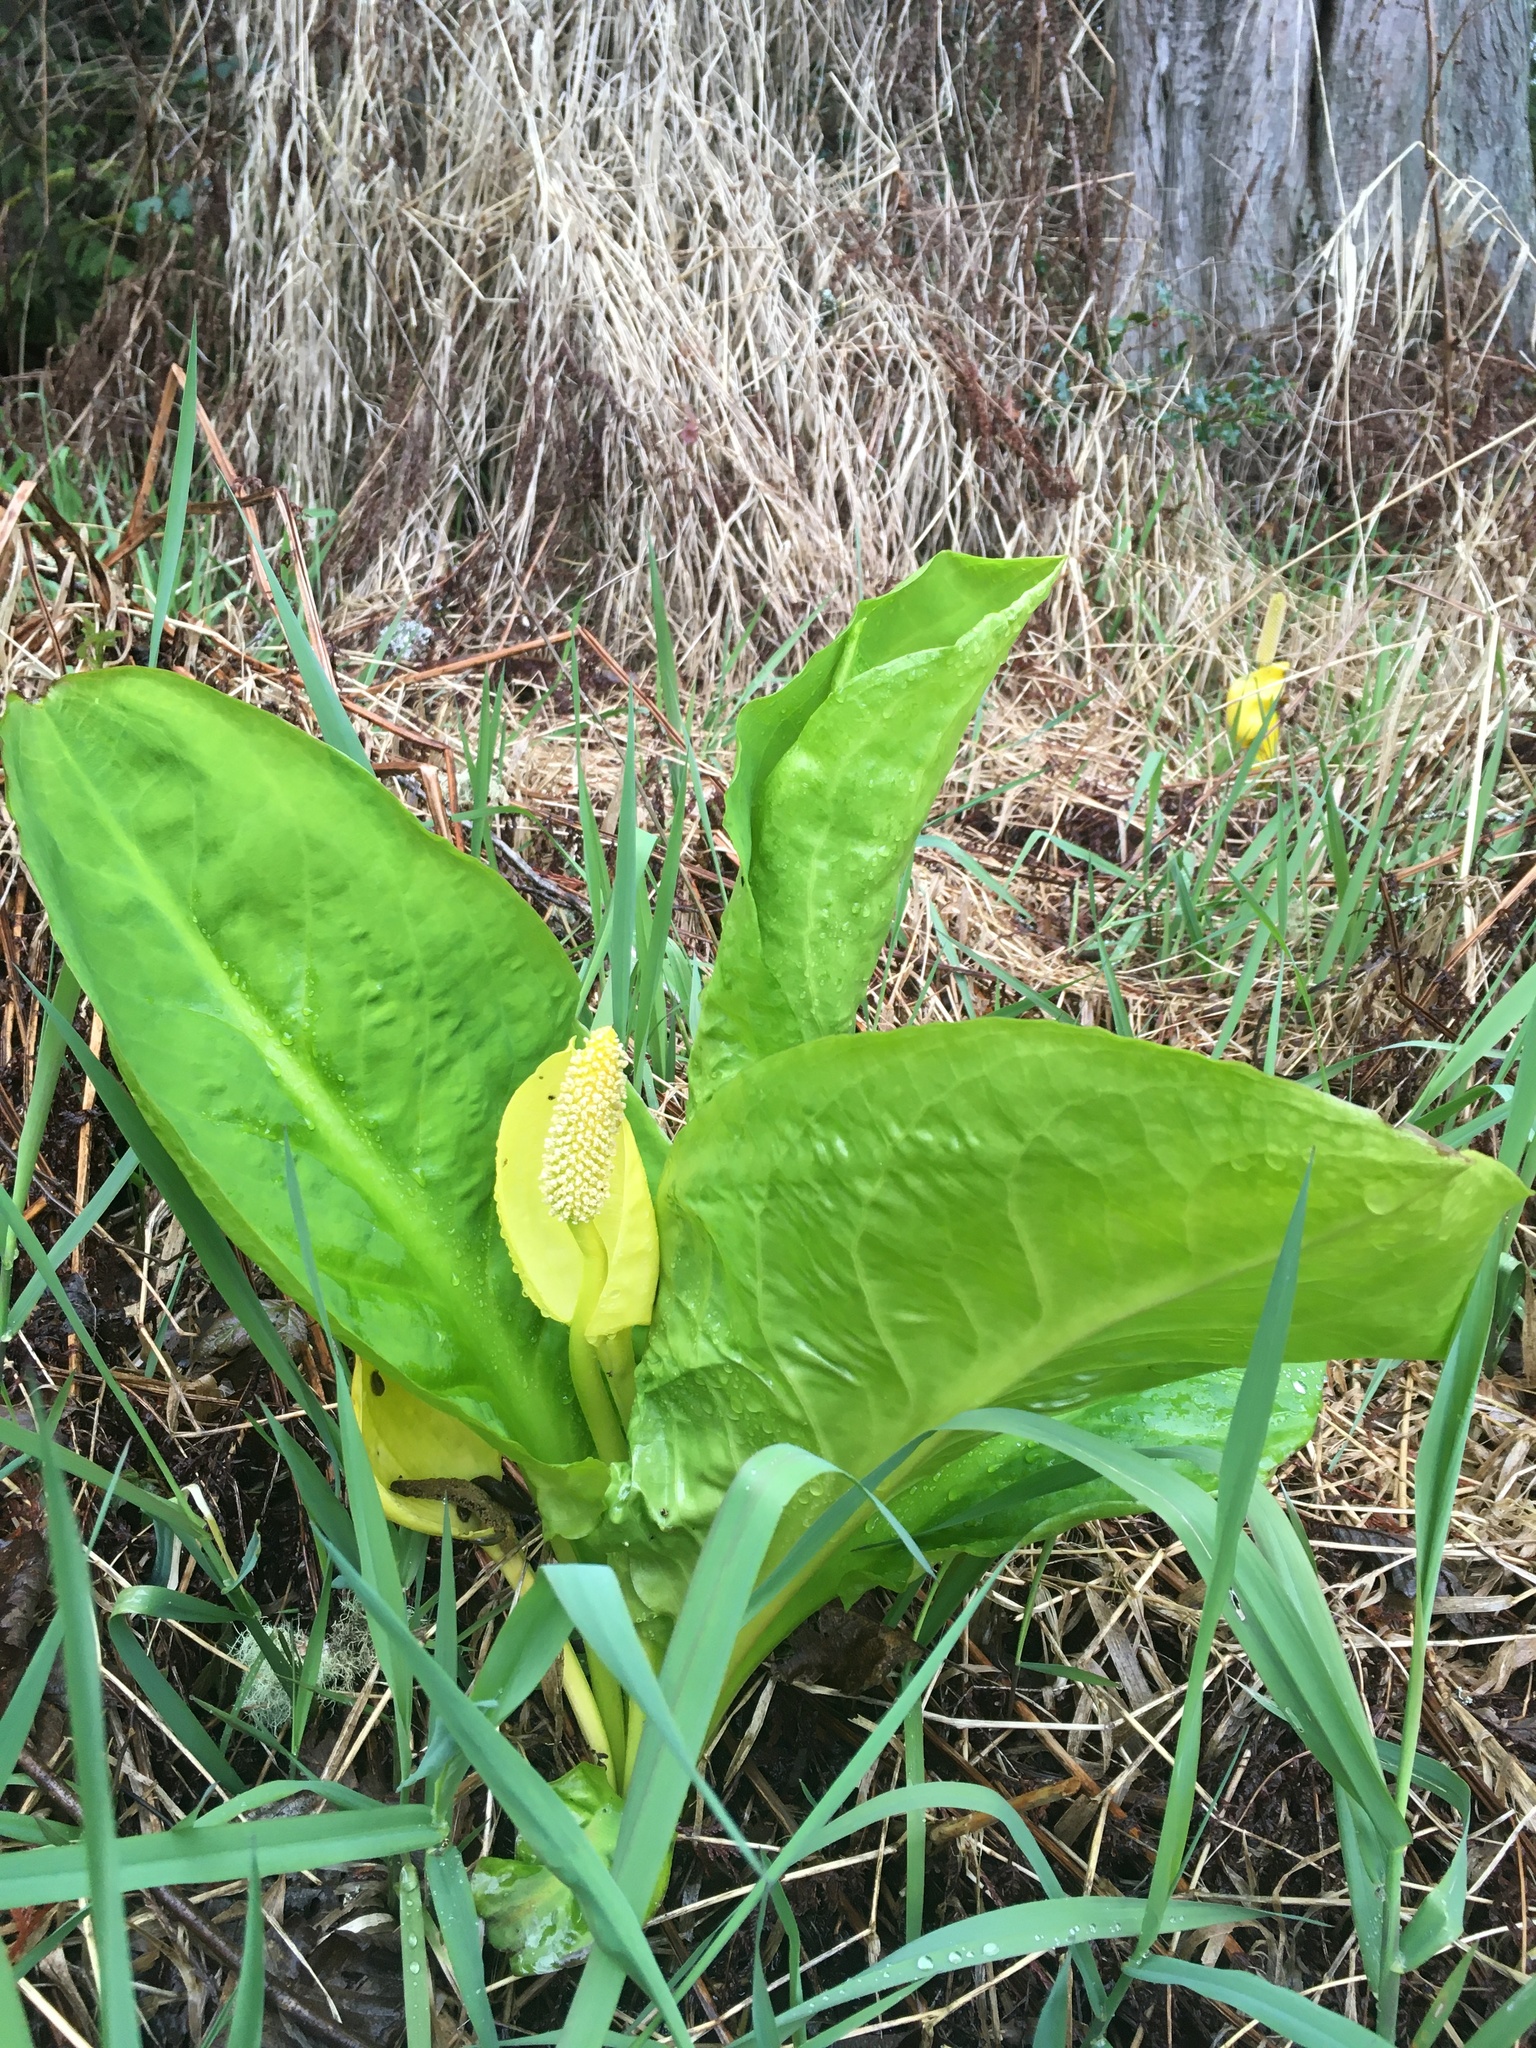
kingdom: Plantae
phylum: Tracheophyta
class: Liliopsida
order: Alismatales
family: Araceae
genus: Lysichiton
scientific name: Lysichiton americanus
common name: American skunk cabbage
